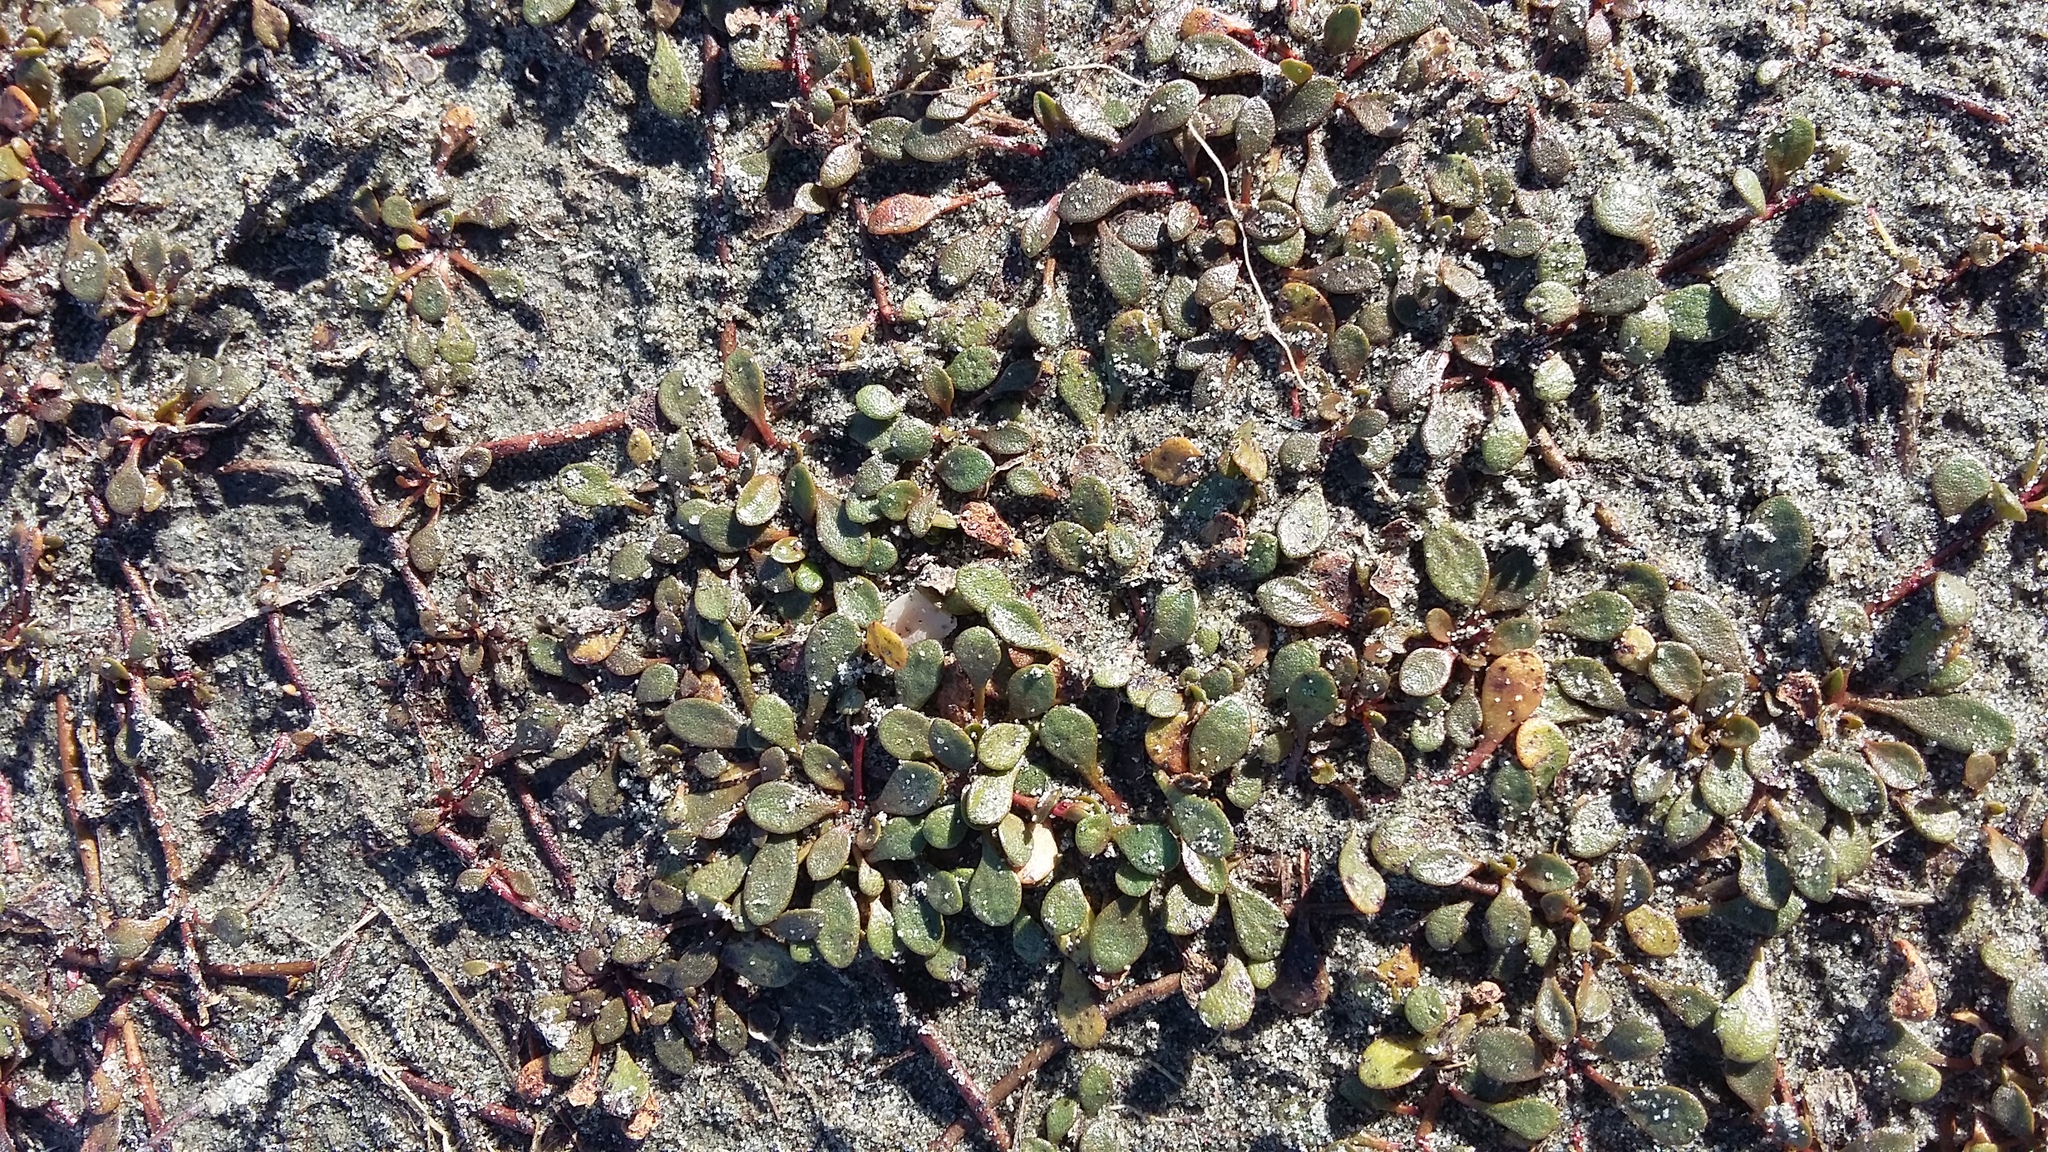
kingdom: Plantae
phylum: Tracheophyta
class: Magnoliopsida
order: Ericales
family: Primulaceae
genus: Samolus
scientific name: Samolus repens
